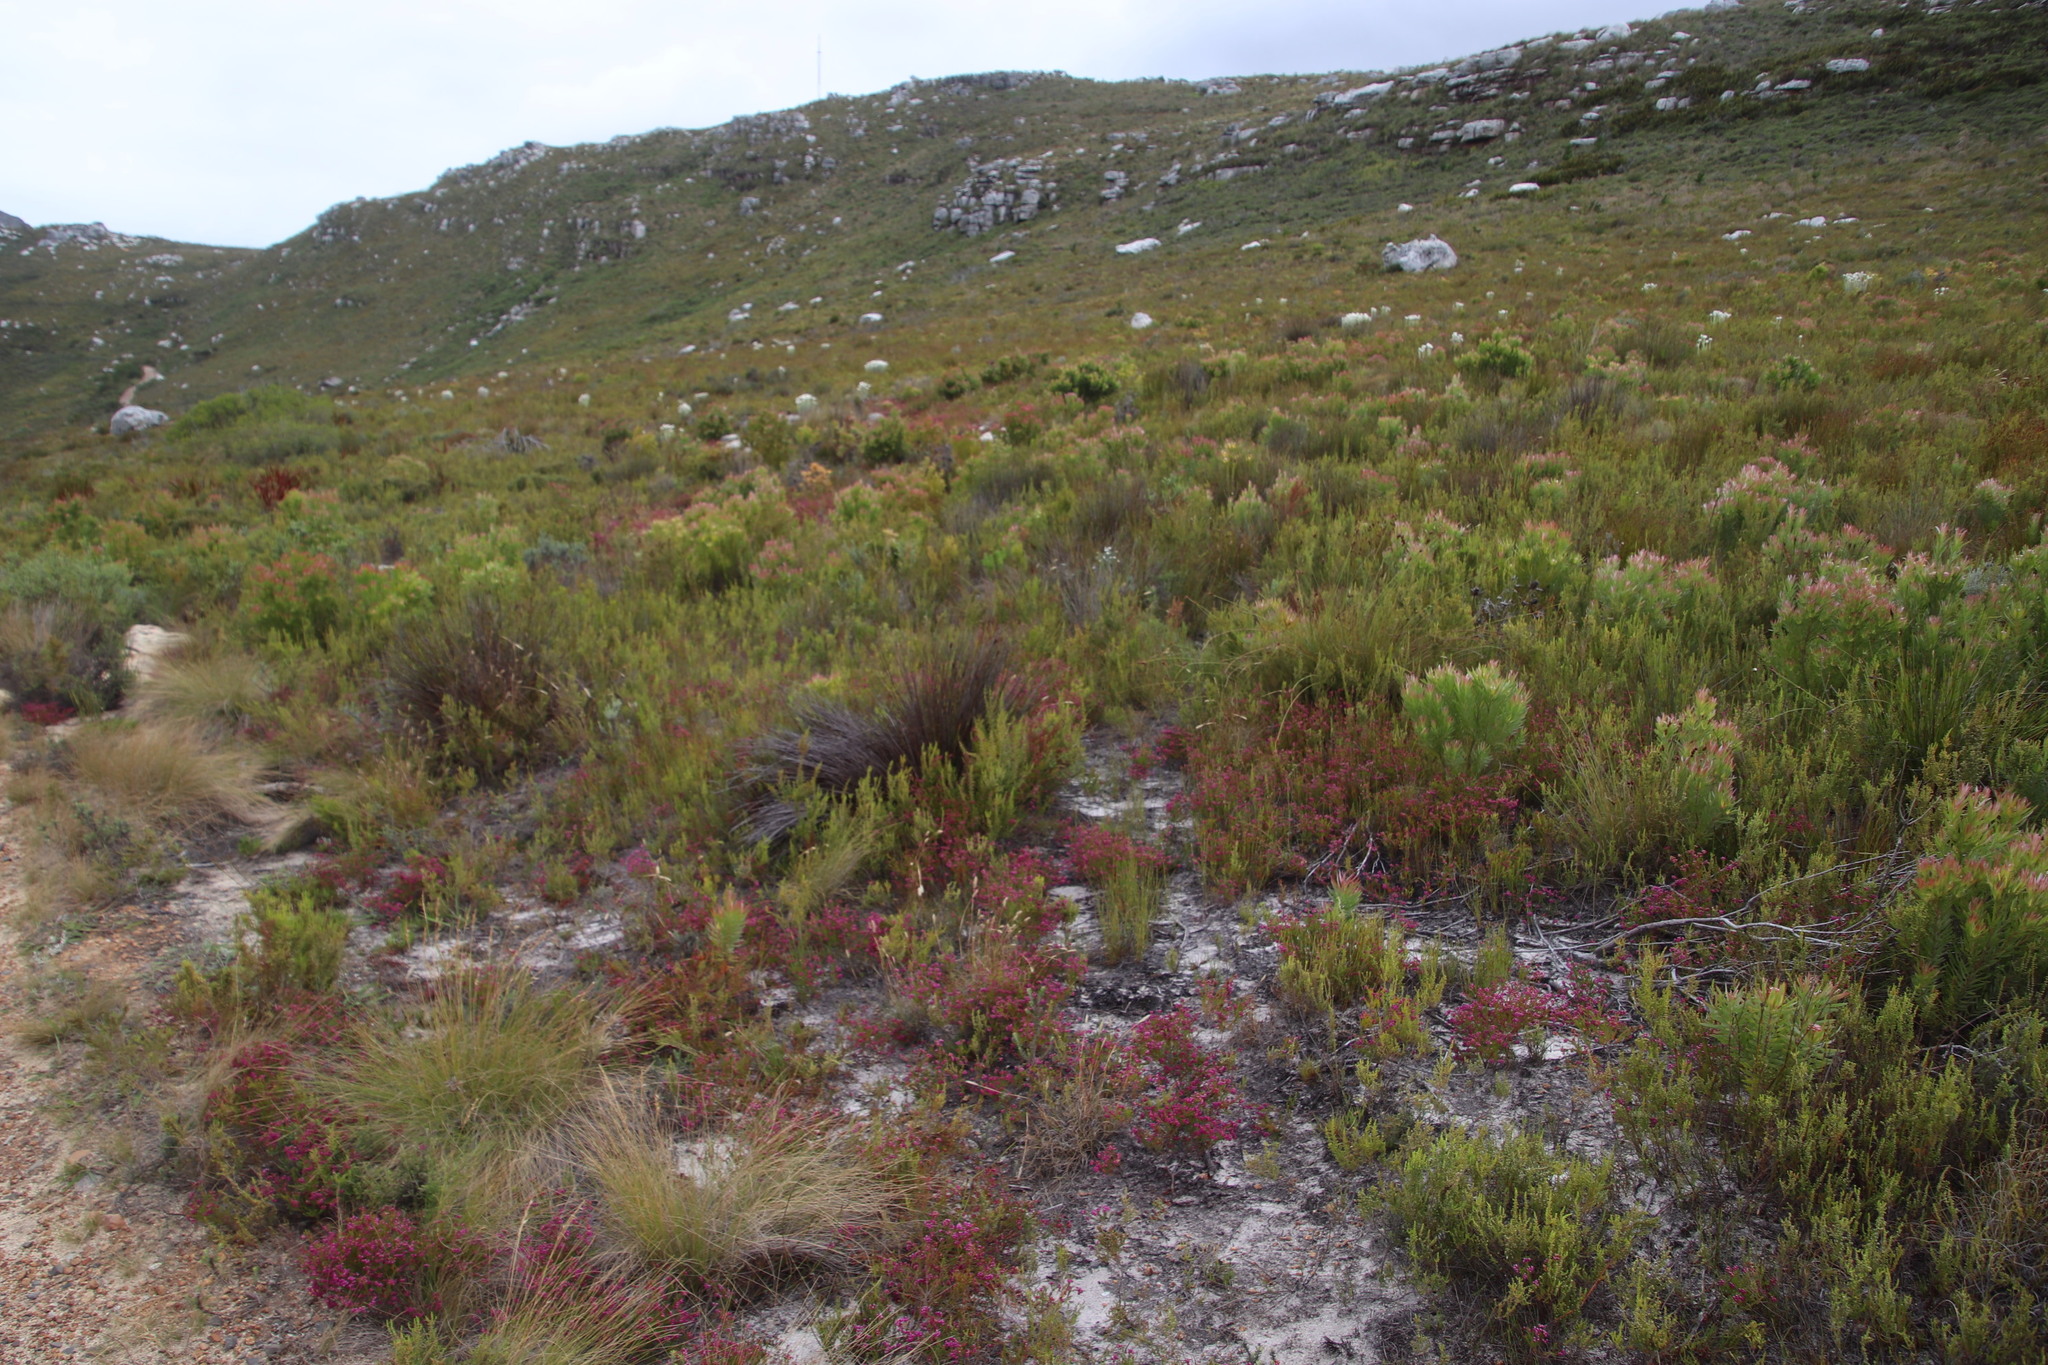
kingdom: Plantae
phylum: Tracheophyta
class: Magnoliopsida
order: Ericales
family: Ericaceae
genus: Erica
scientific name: Erica multumbellifera
